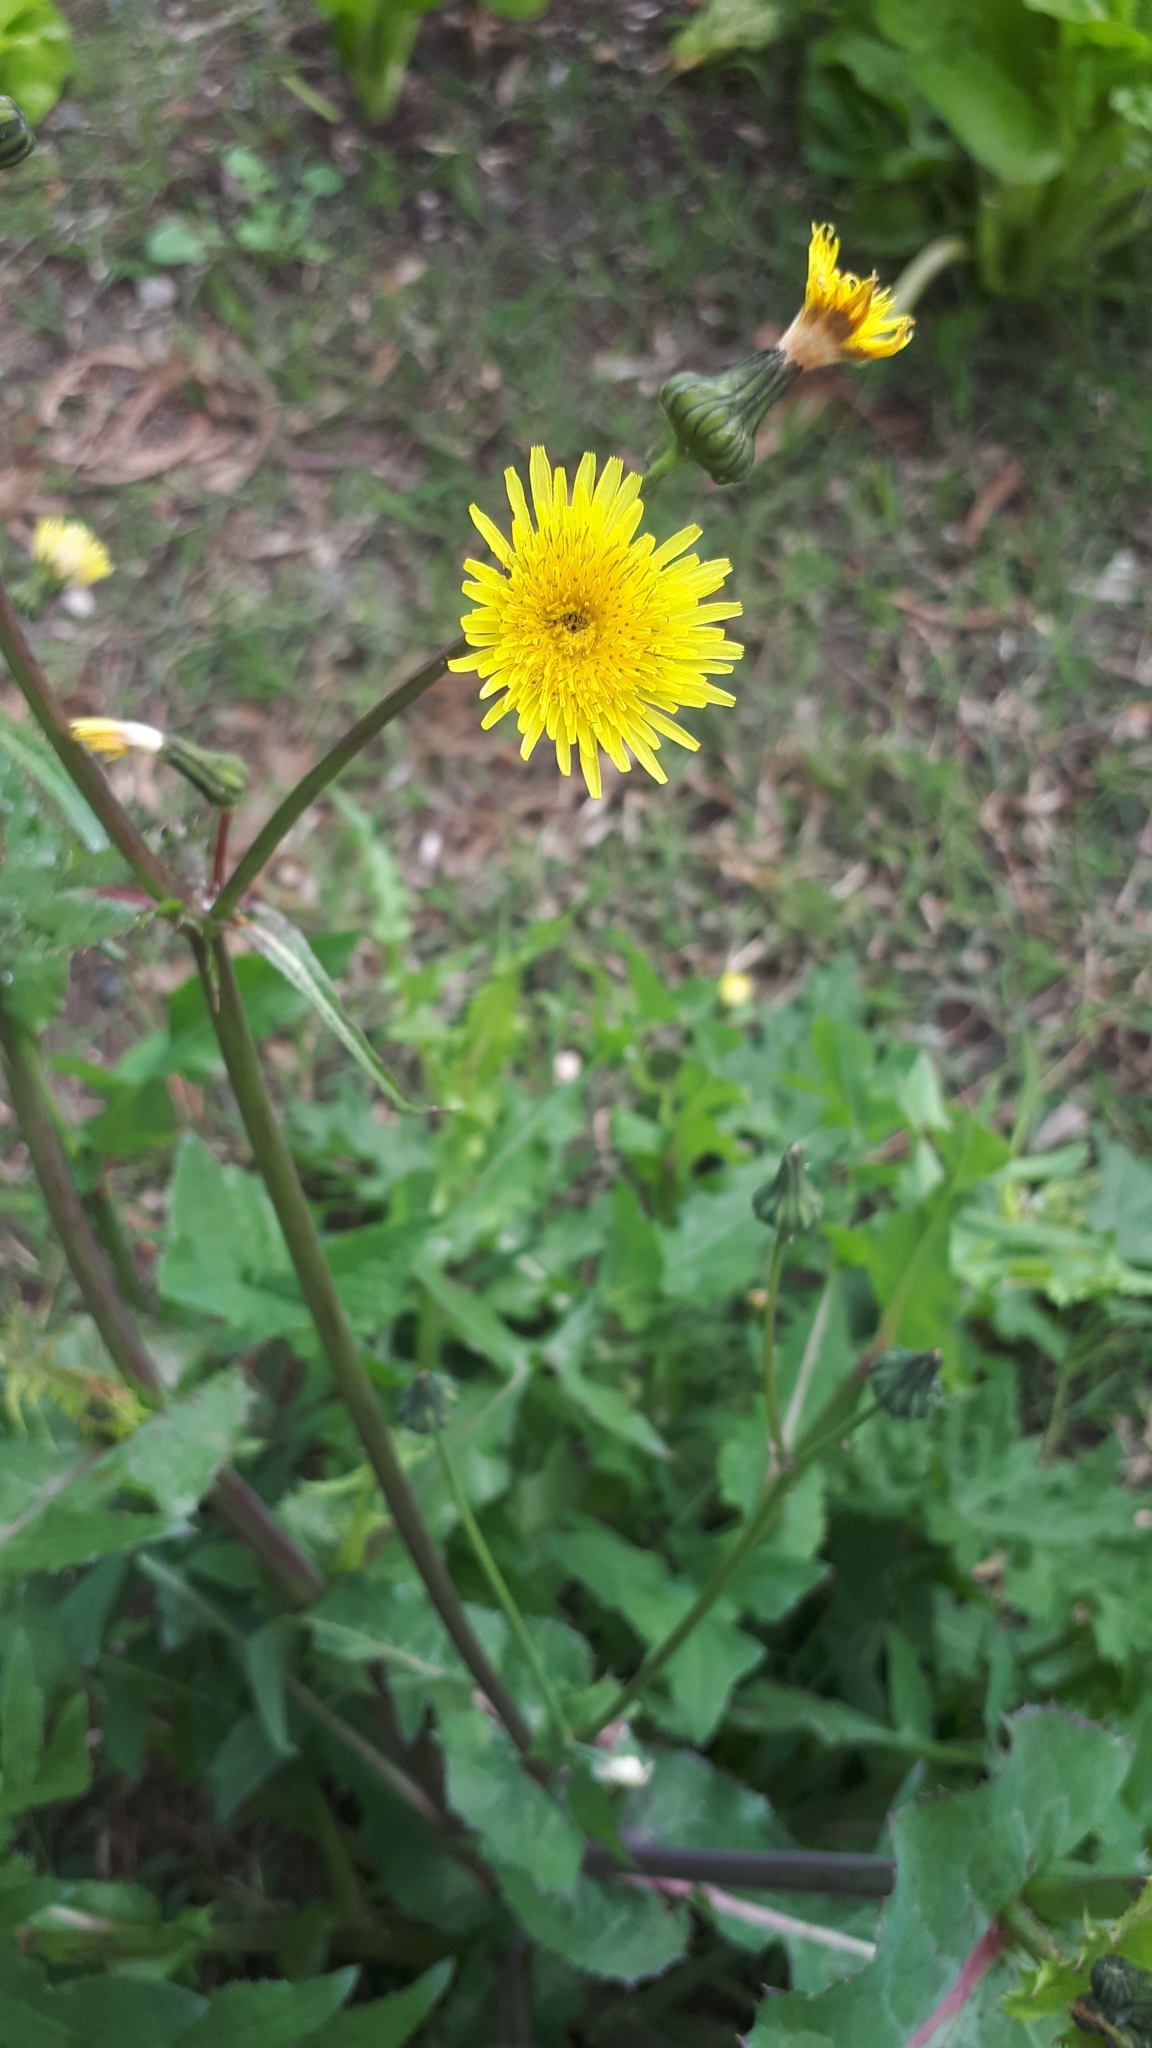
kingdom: Plantae
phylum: Tracheophyta
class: Magnoliopsida
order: Asterales
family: Asteraceae
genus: Sonchus
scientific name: Sonchus oleraceus
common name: Common sowthistle
